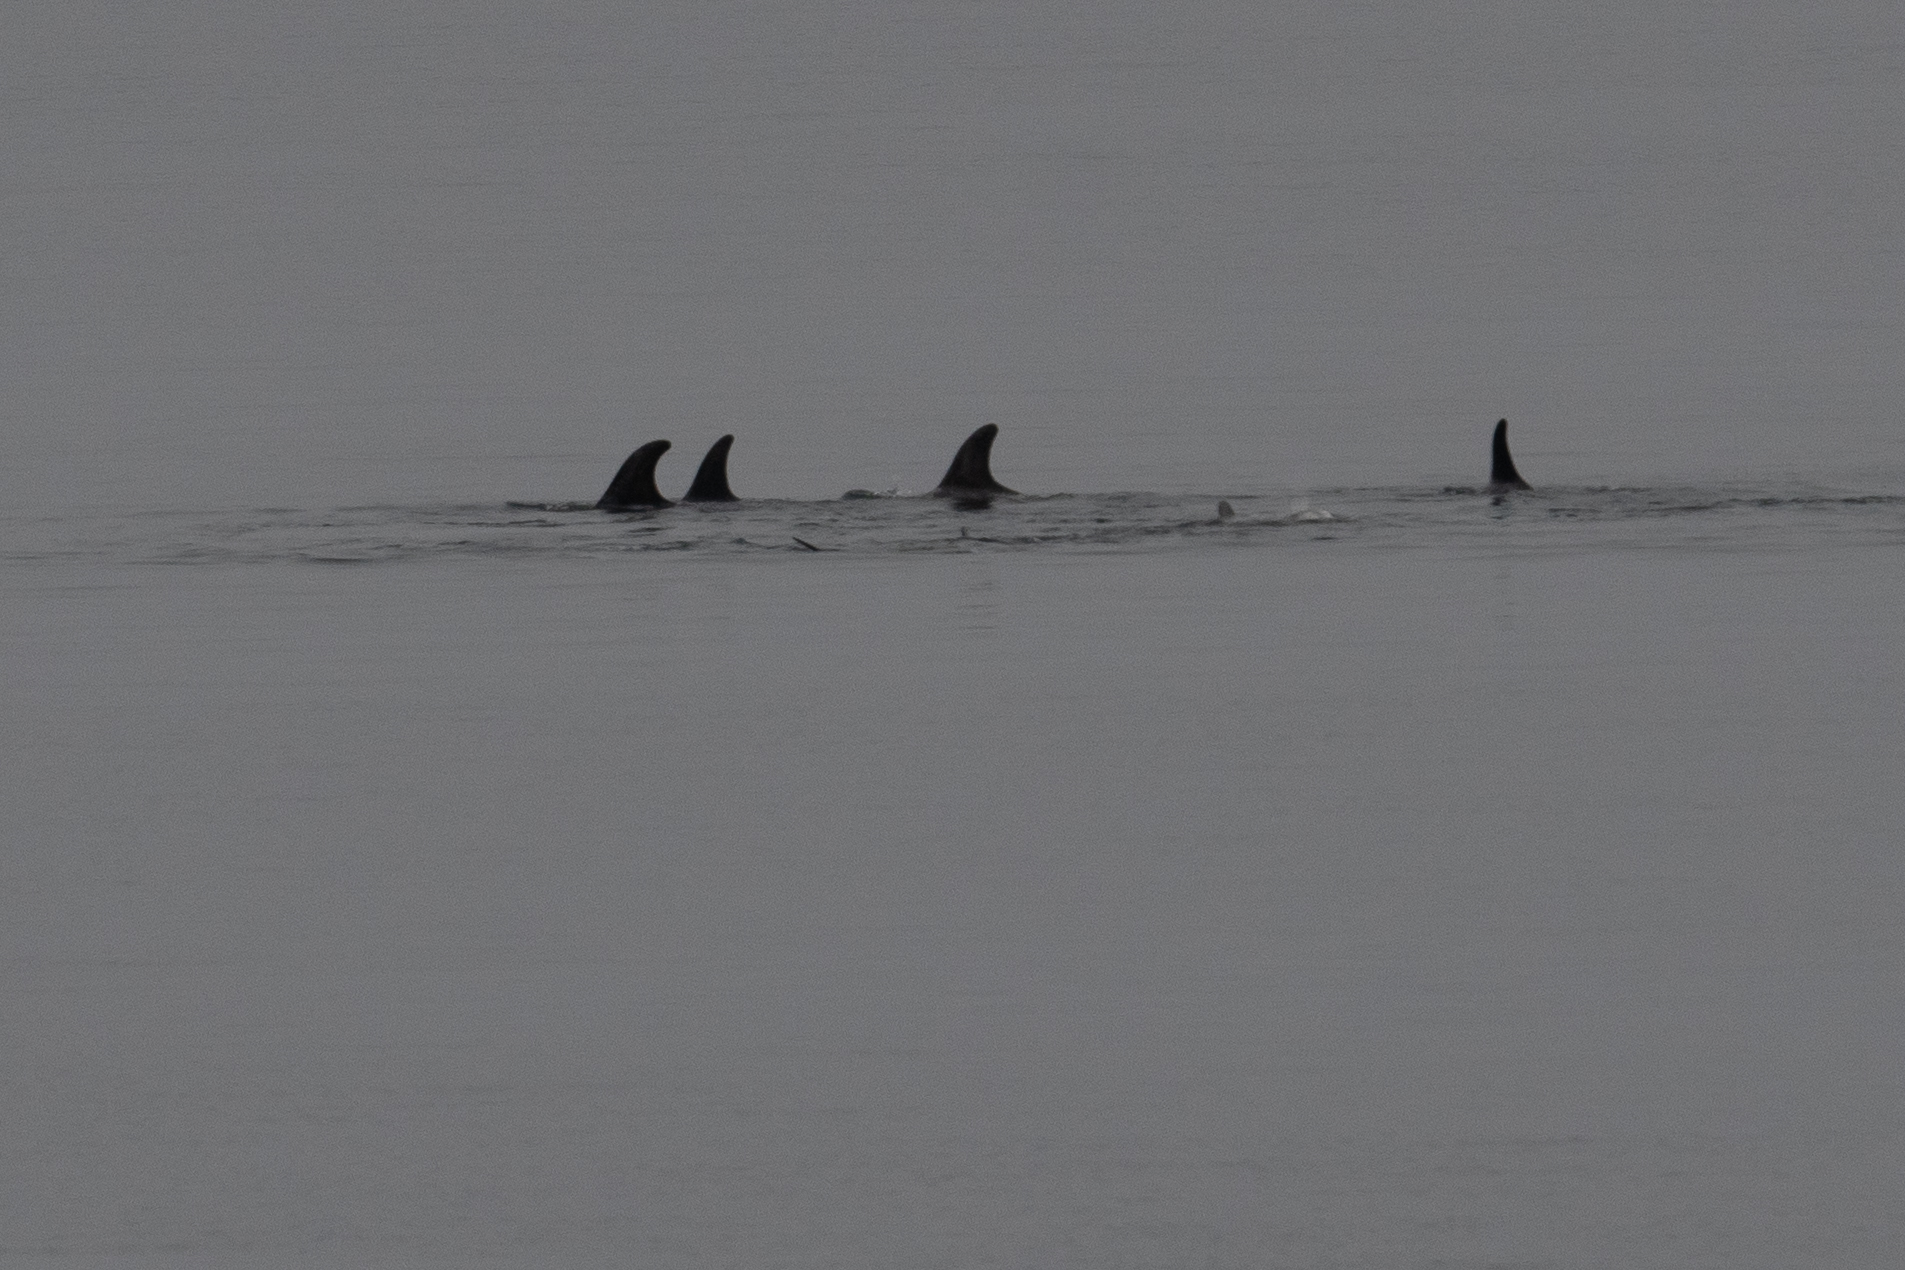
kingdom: Animalia
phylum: Chordata
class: Mammalia
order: Cetacea
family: Delphinidae
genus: Grampus
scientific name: Grampus griseus
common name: Risso's dolphin
